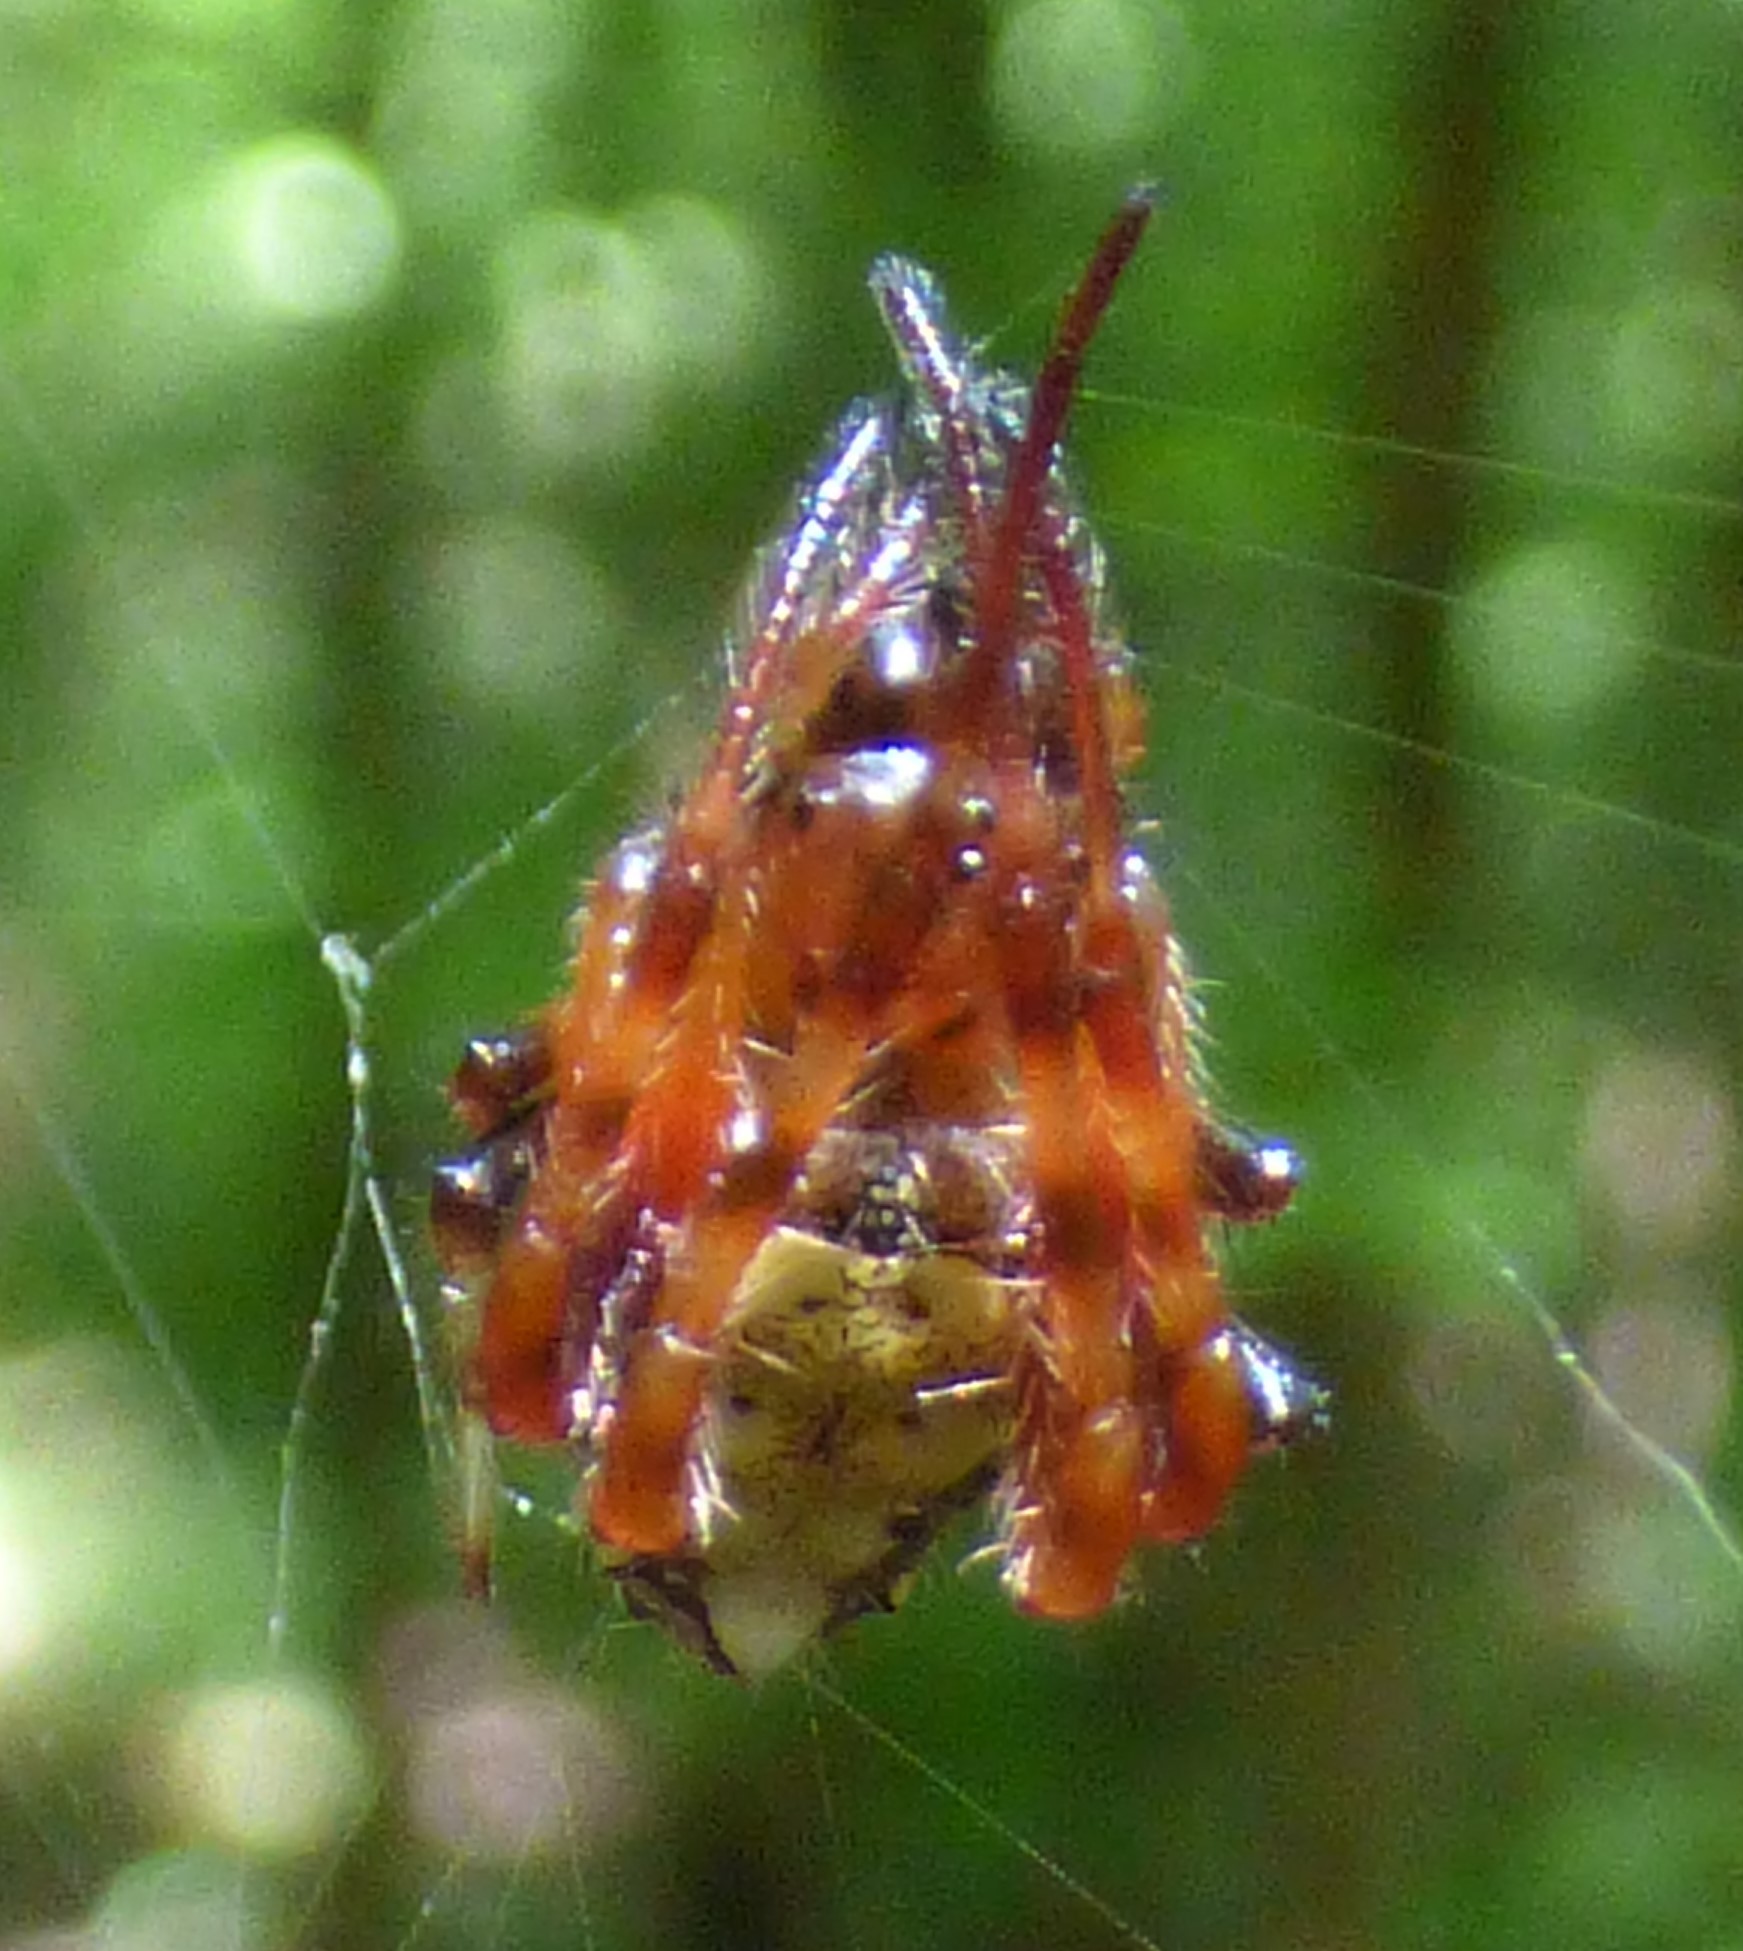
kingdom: Animalia
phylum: Arthropoda
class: Arachnida
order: Araneae
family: Araneidae
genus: Verrucosa
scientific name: Verrucosa arenata
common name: Orb weavers
